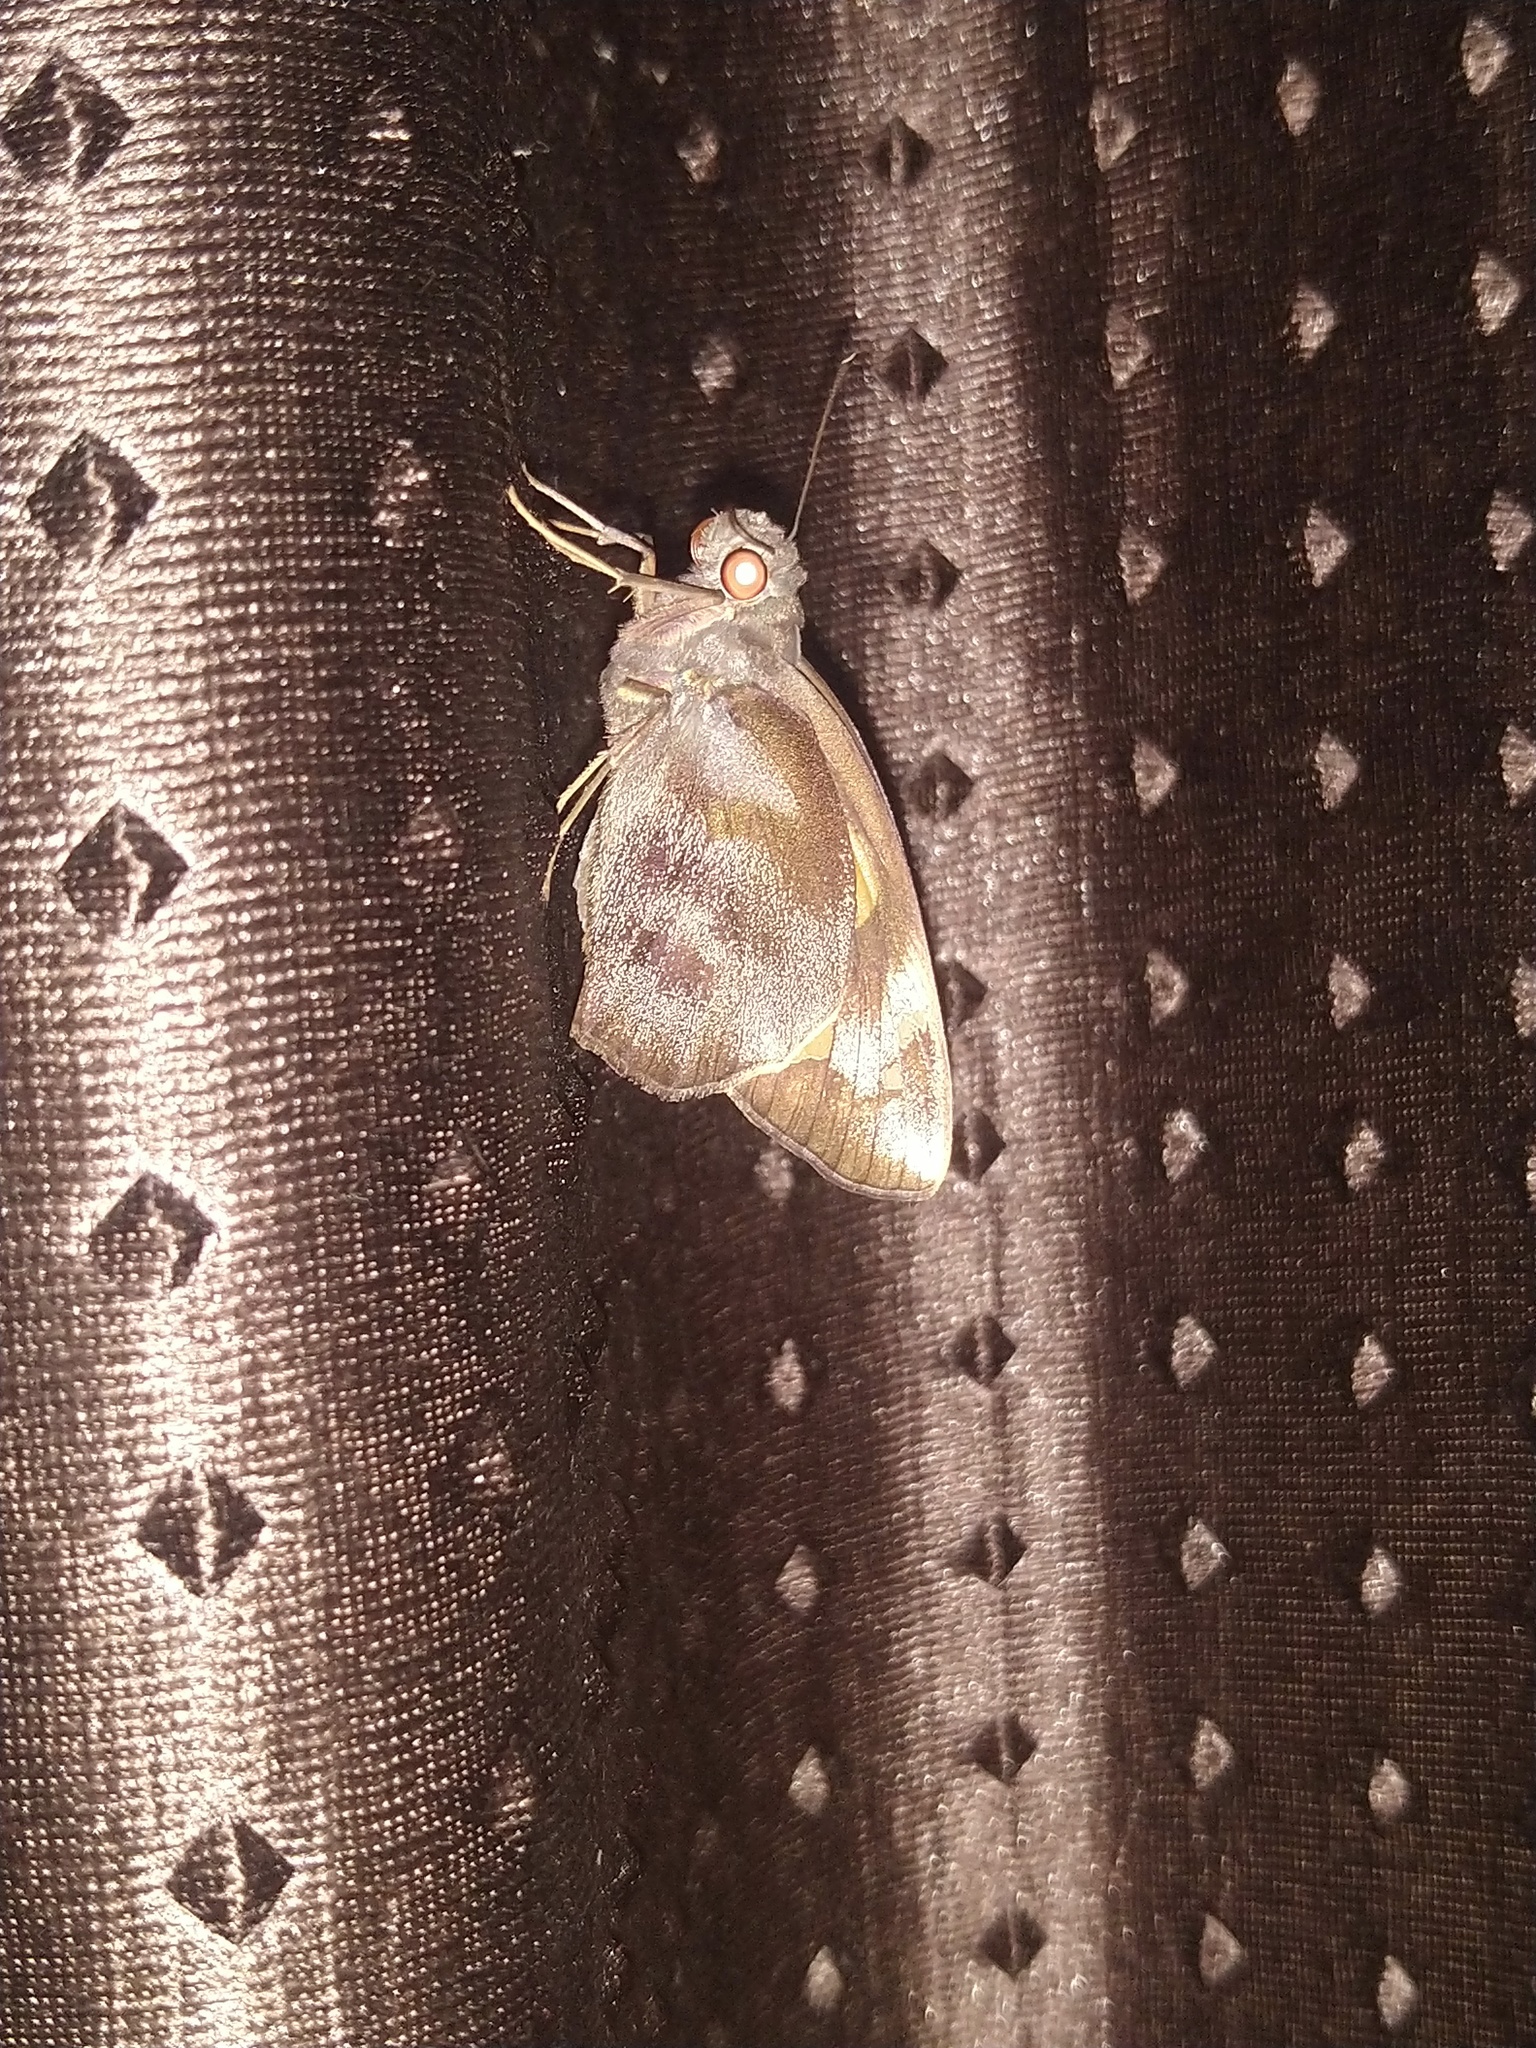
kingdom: Animalia
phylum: Arthropoda
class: Insecta
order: Lepidoptera
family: Hesperiidae
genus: Gangara
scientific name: Gangara thyrsis
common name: Giant redeye
